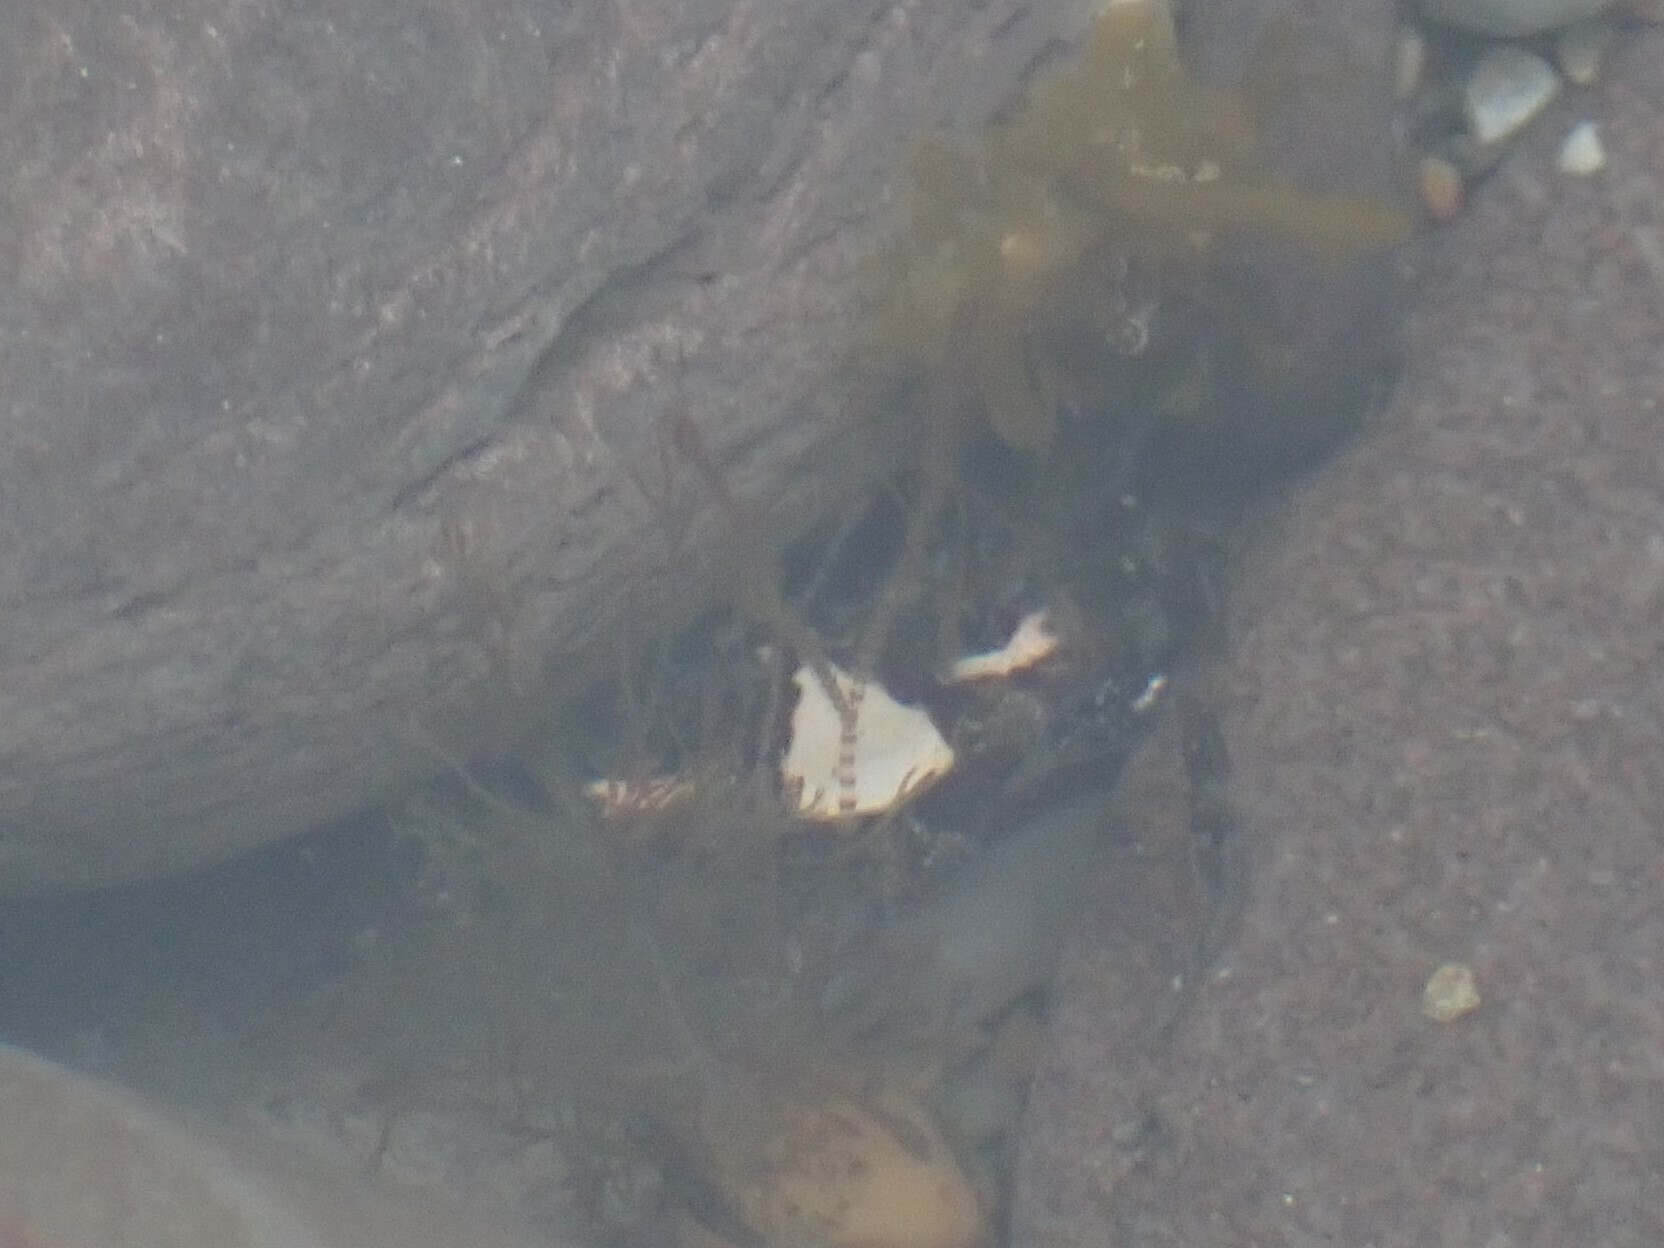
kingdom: Animalia
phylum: Arthropoda
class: Malacostraca
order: Decapoda
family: Carcinidae
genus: Carcinus
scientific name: Carcinus maenas
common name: European green crab
